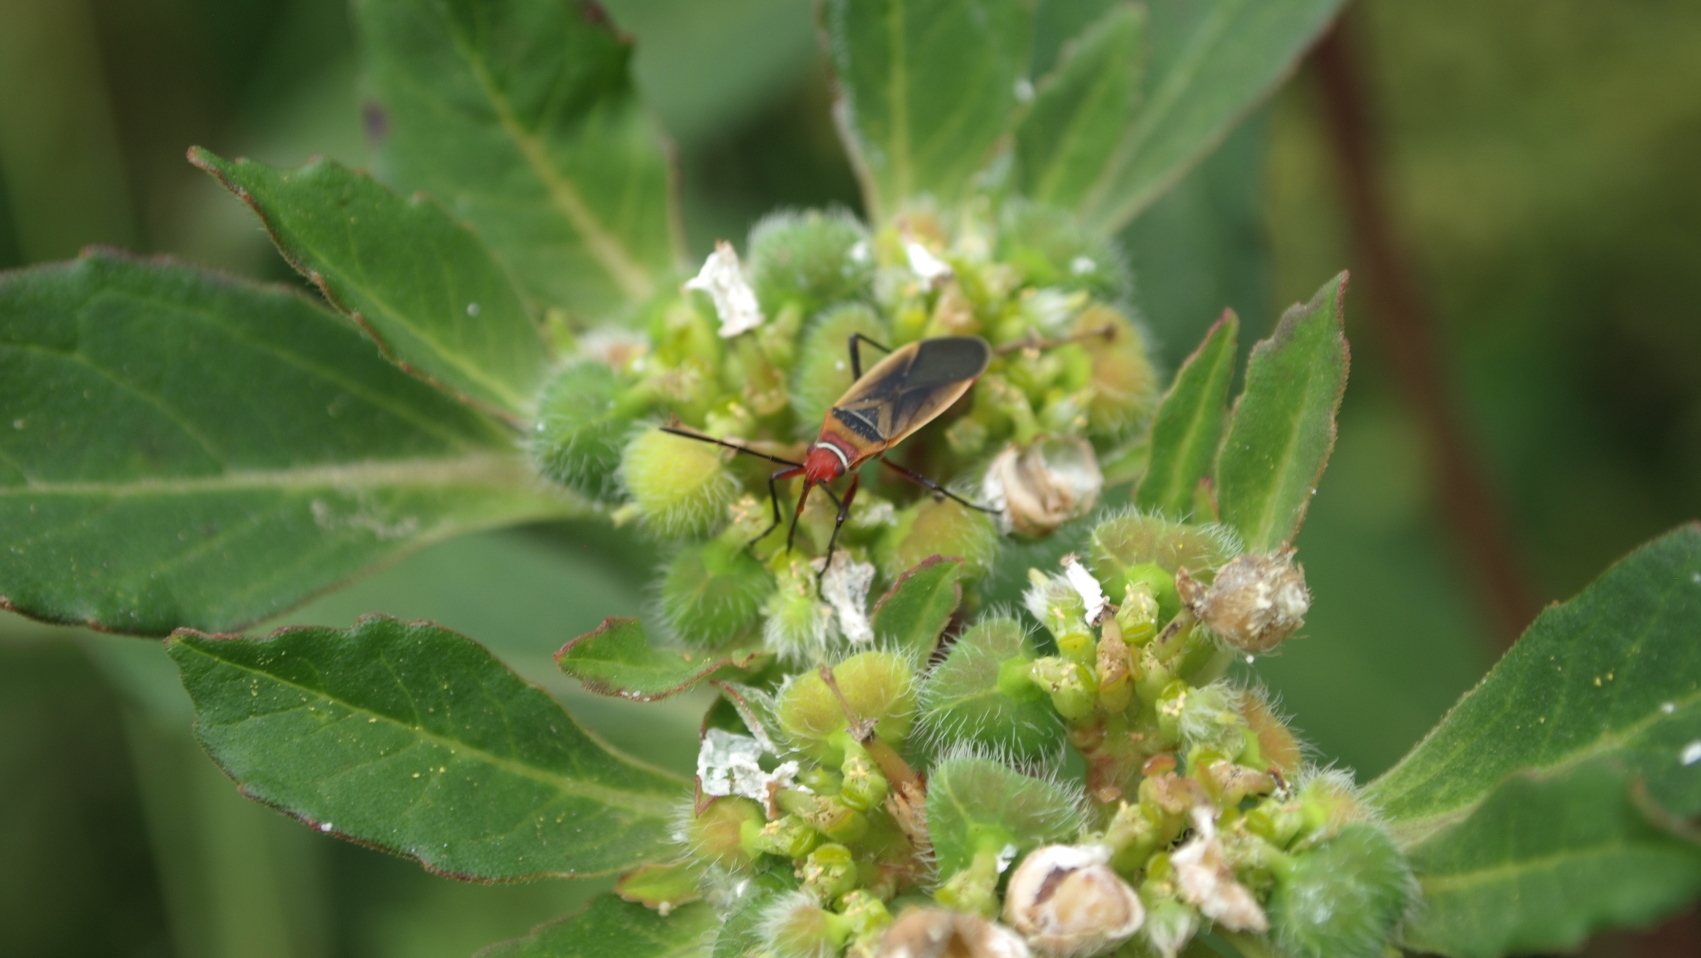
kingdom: Animalia
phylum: Arthropoda
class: Insecta
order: Hemiptera
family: Pyrrhocoridae
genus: Dysdercus
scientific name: Dysdercus mimulus
